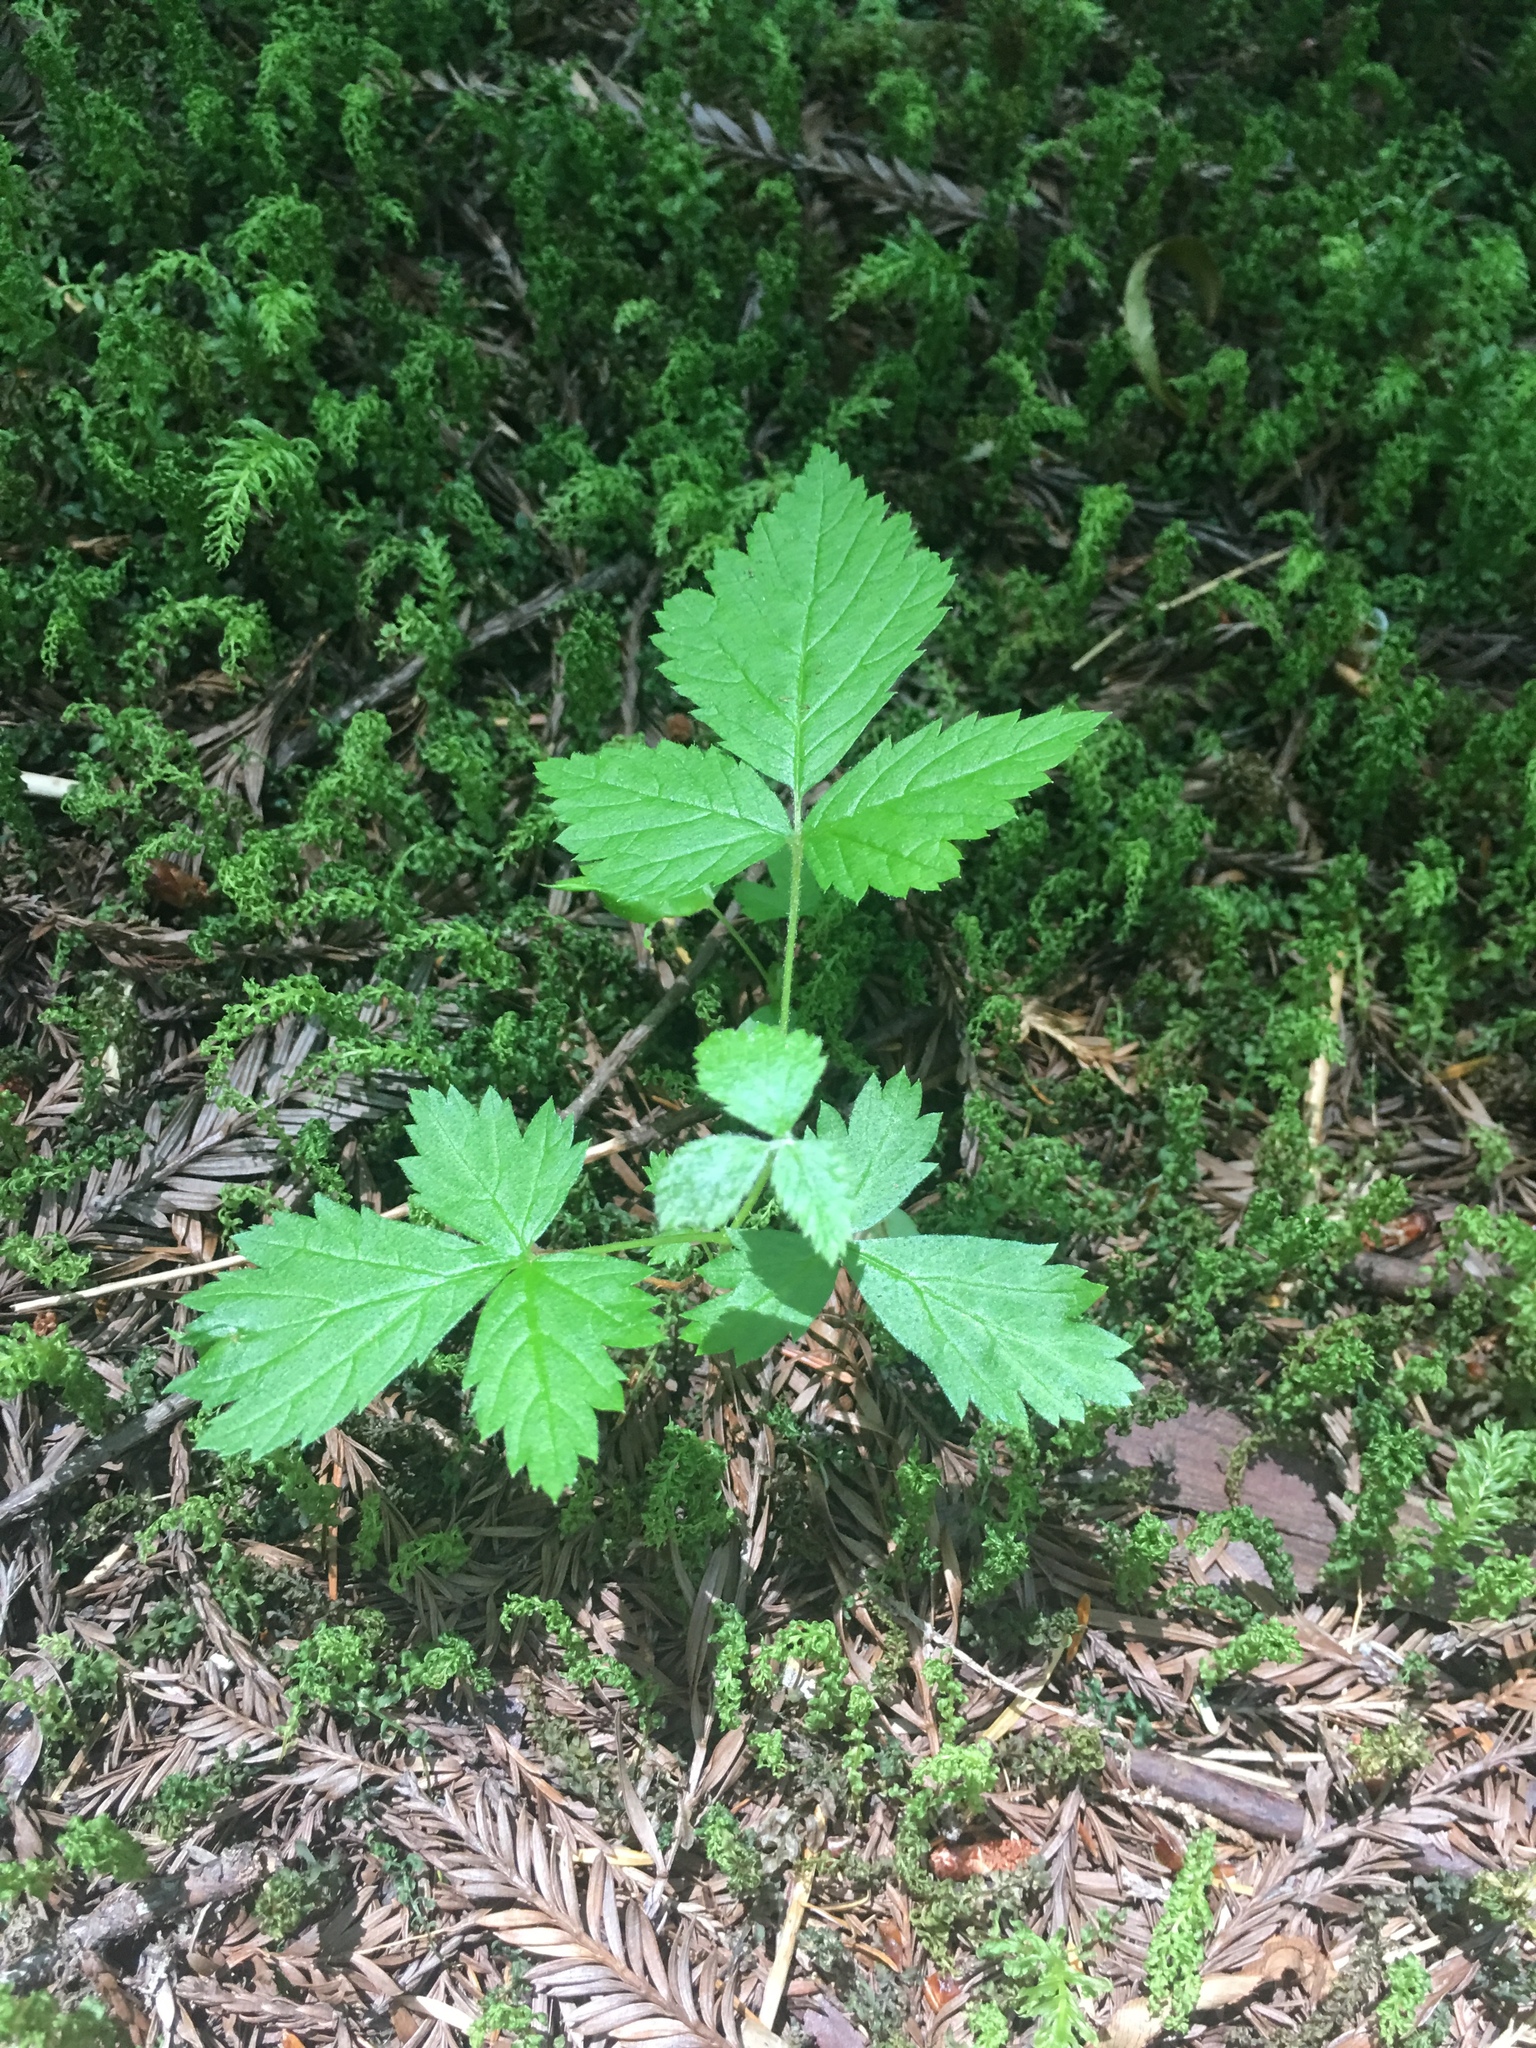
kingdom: Plantae
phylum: Tracheophyta
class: Magnoliopsida
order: Rosales
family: Rosaceae
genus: Rubus
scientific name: Rubus spectabilis
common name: Salmonberry
